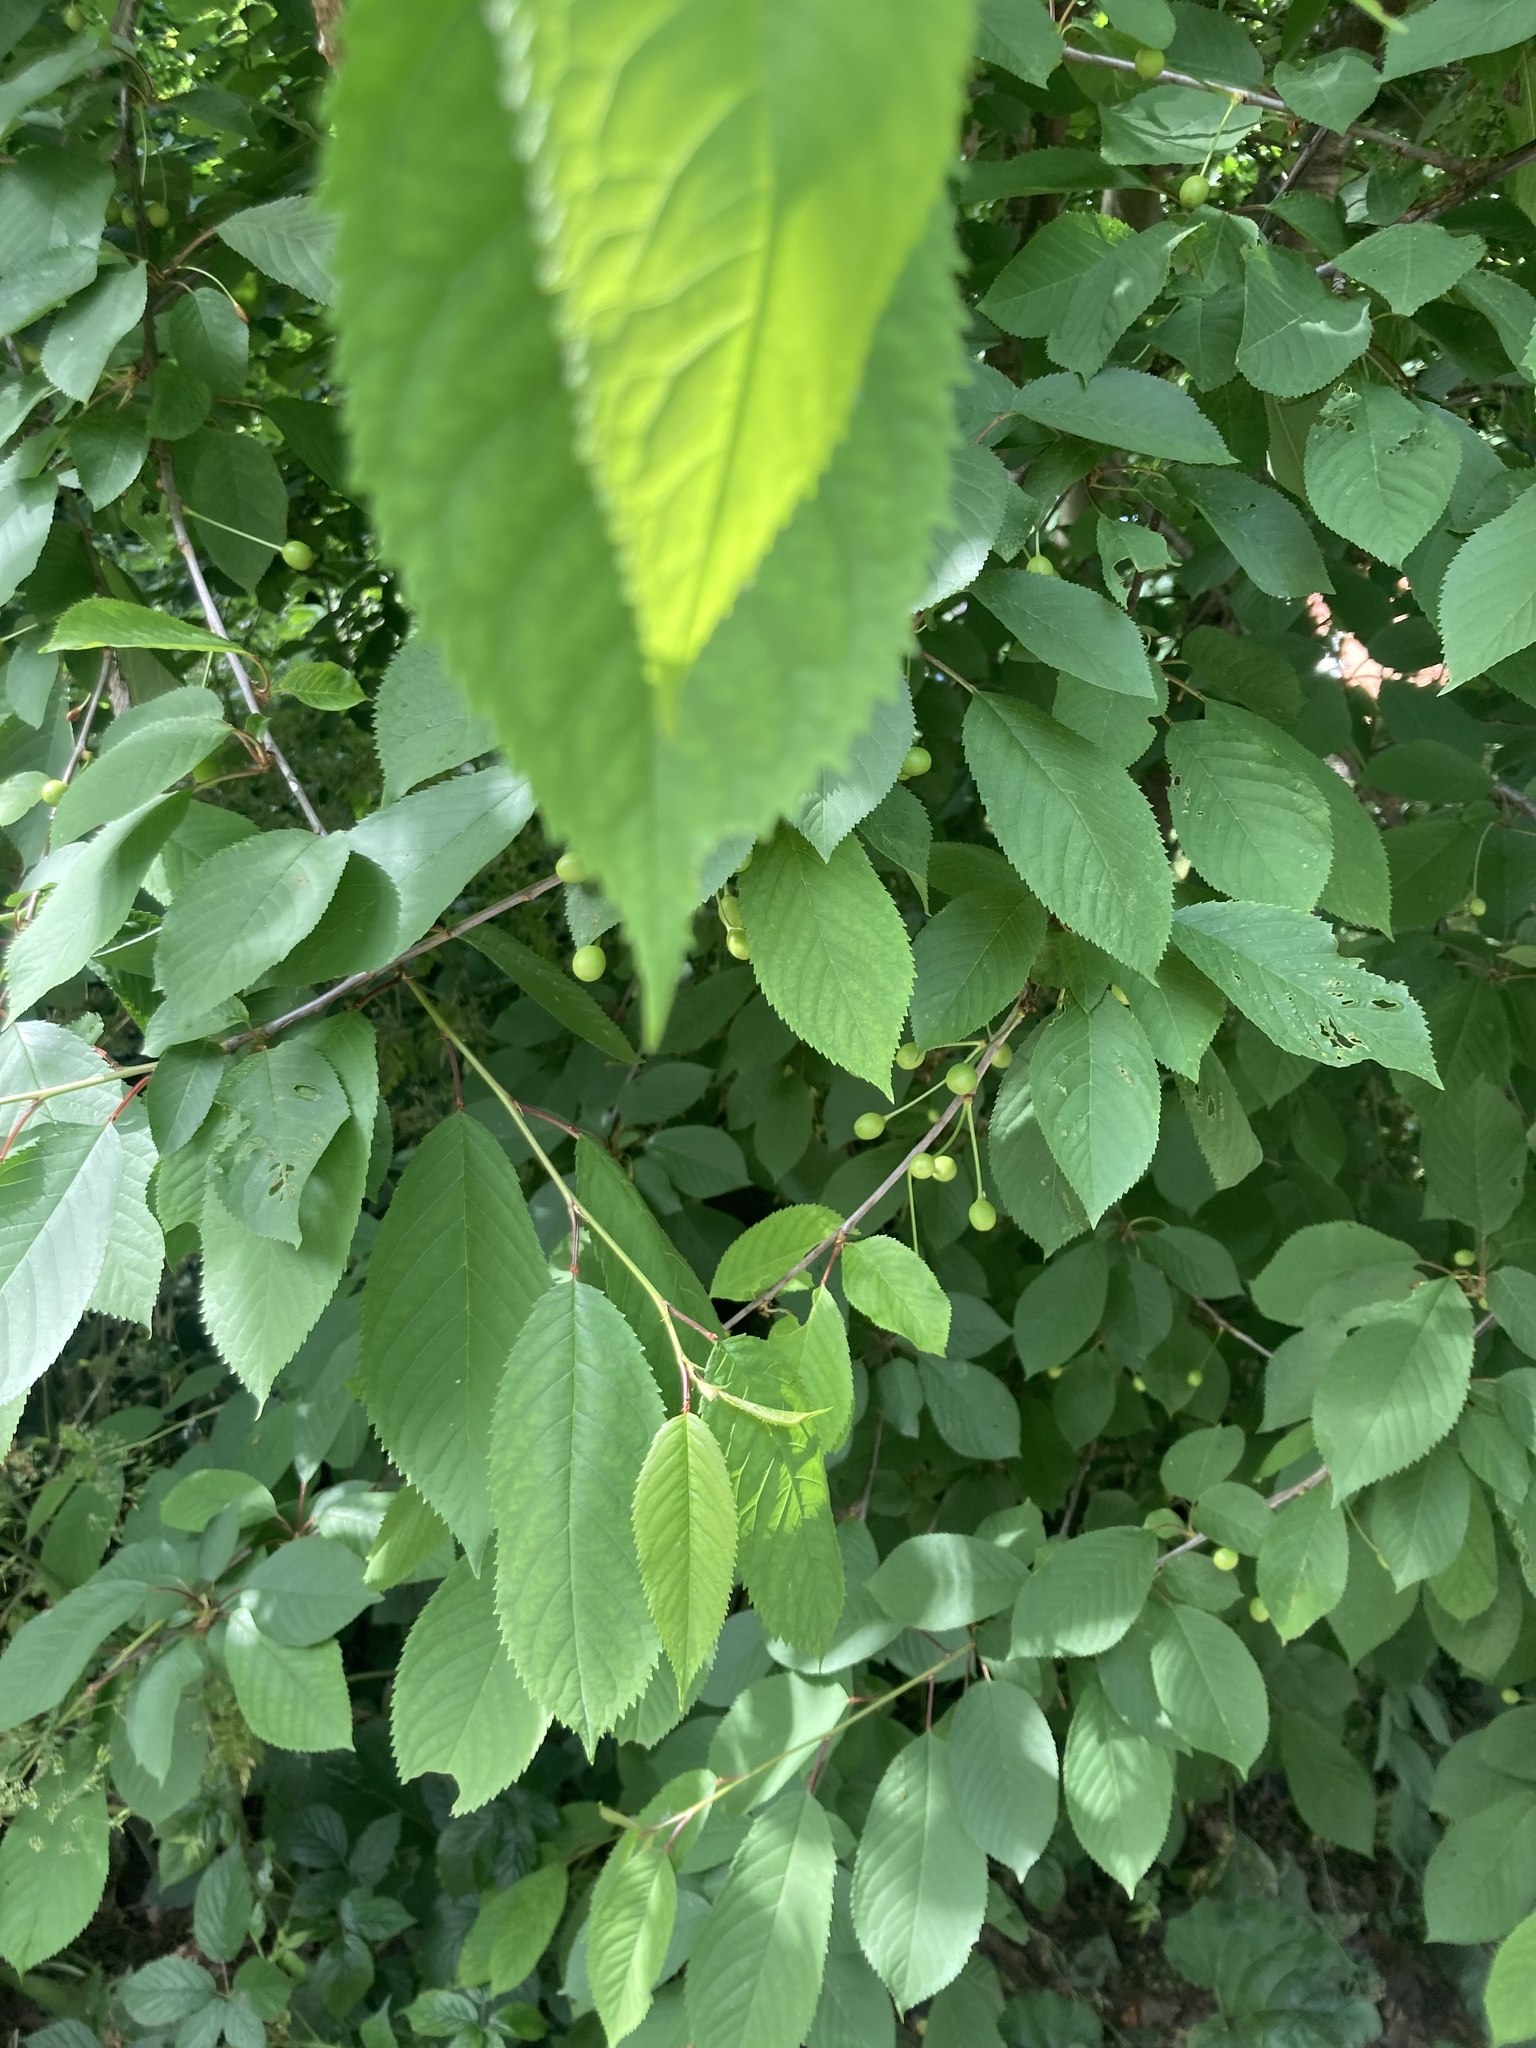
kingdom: Plantae
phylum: Tracheophyta
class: Magnoliopsida
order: Rosales
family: Rosaceae
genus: Prunus
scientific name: Prunus avium
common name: Sweet cherry
